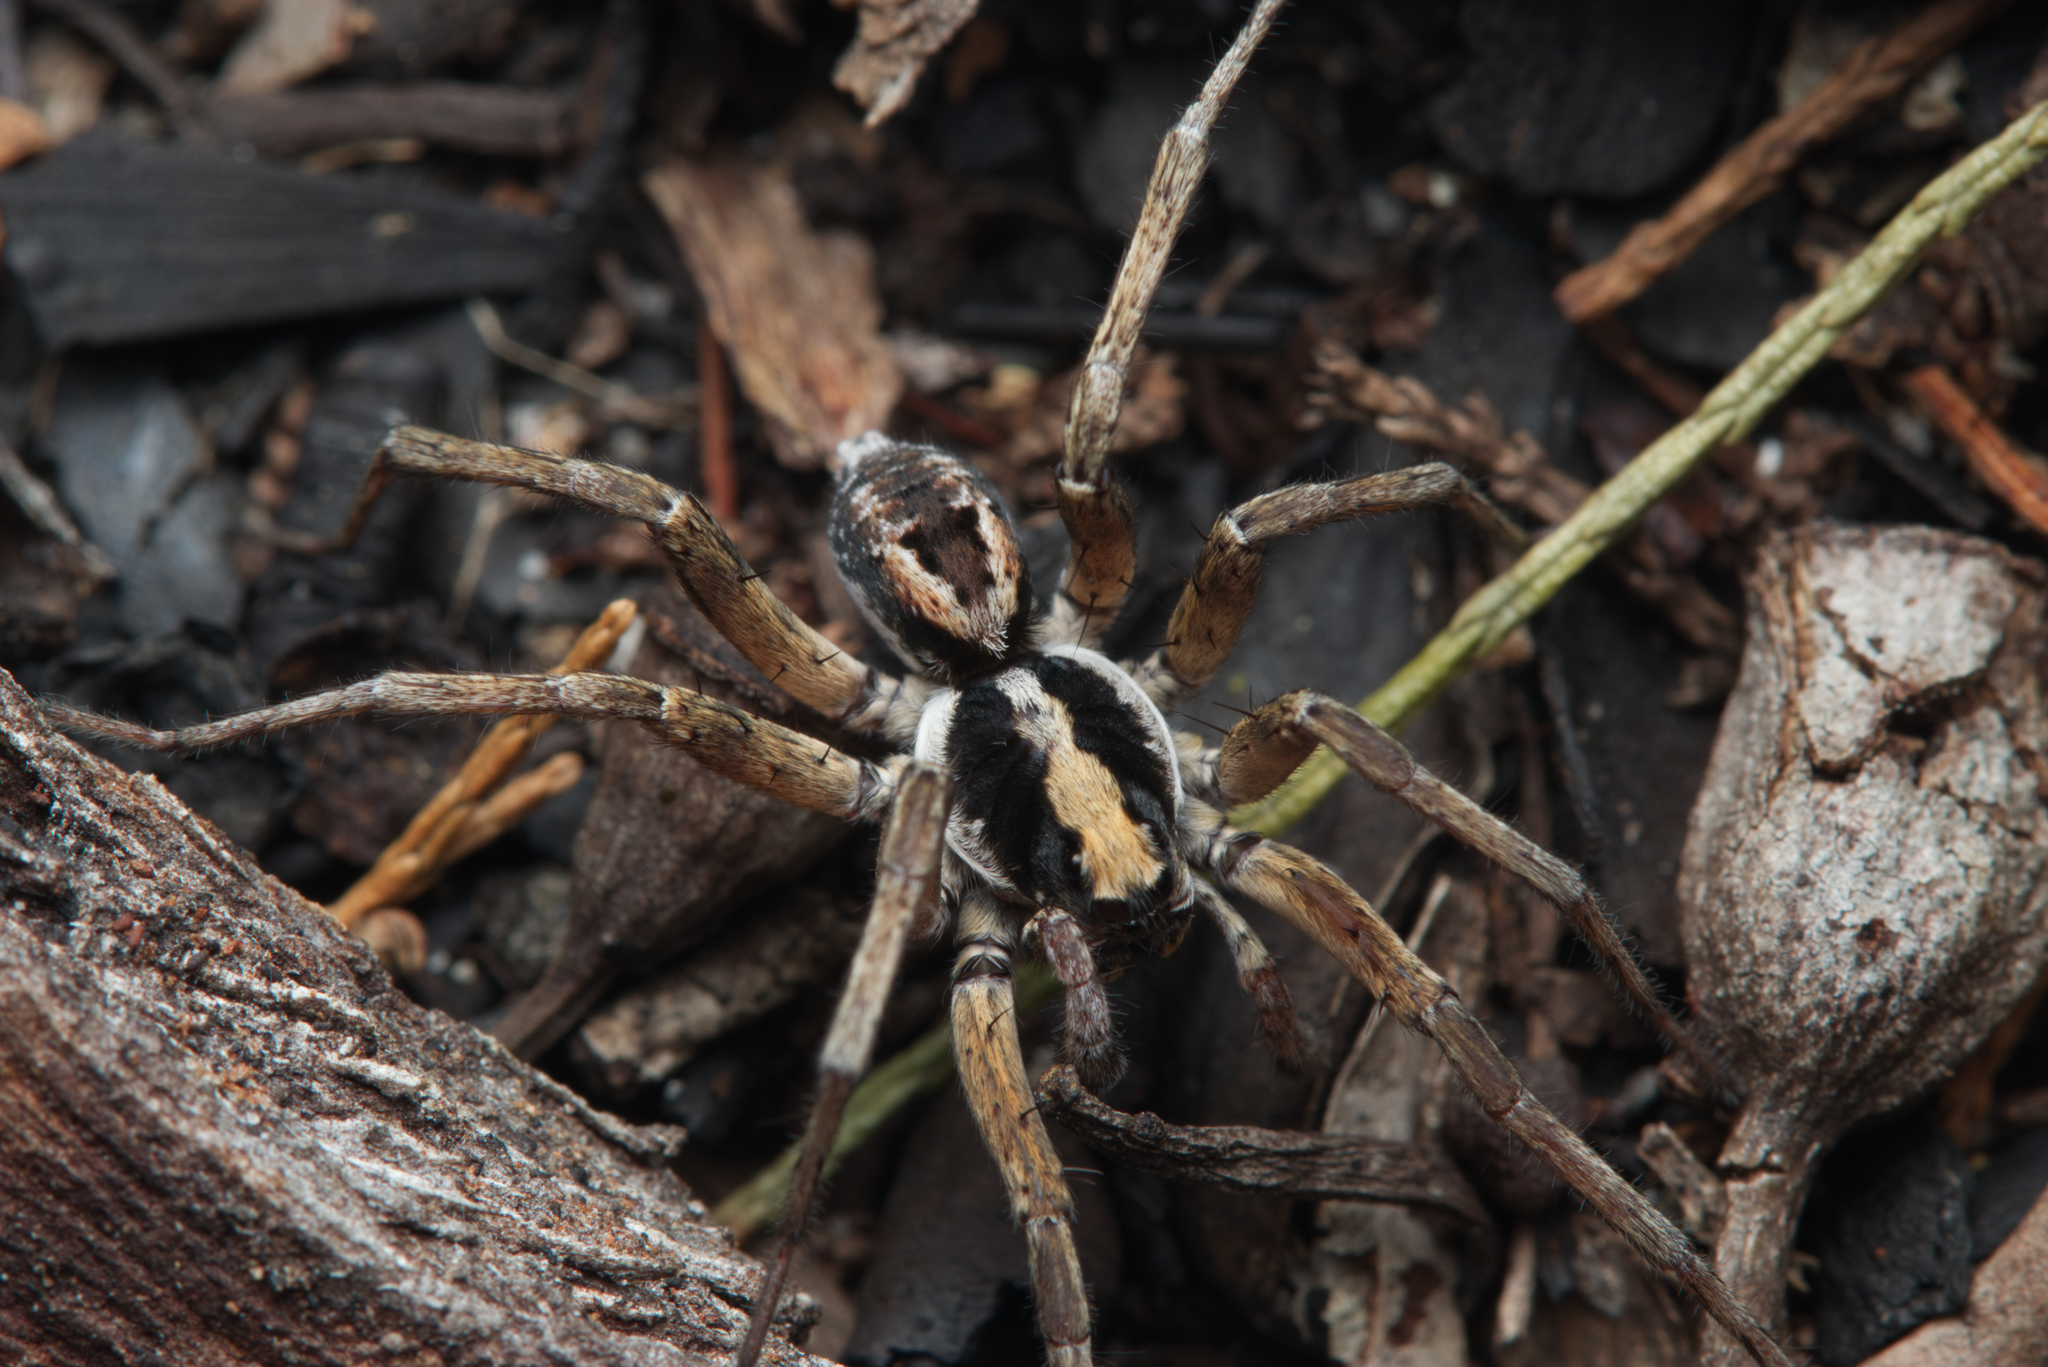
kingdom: Animalia
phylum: Arthropoda
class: Arachnida
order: Araneae
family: Lycosidae
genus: Venator
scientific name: Venator spenceri
